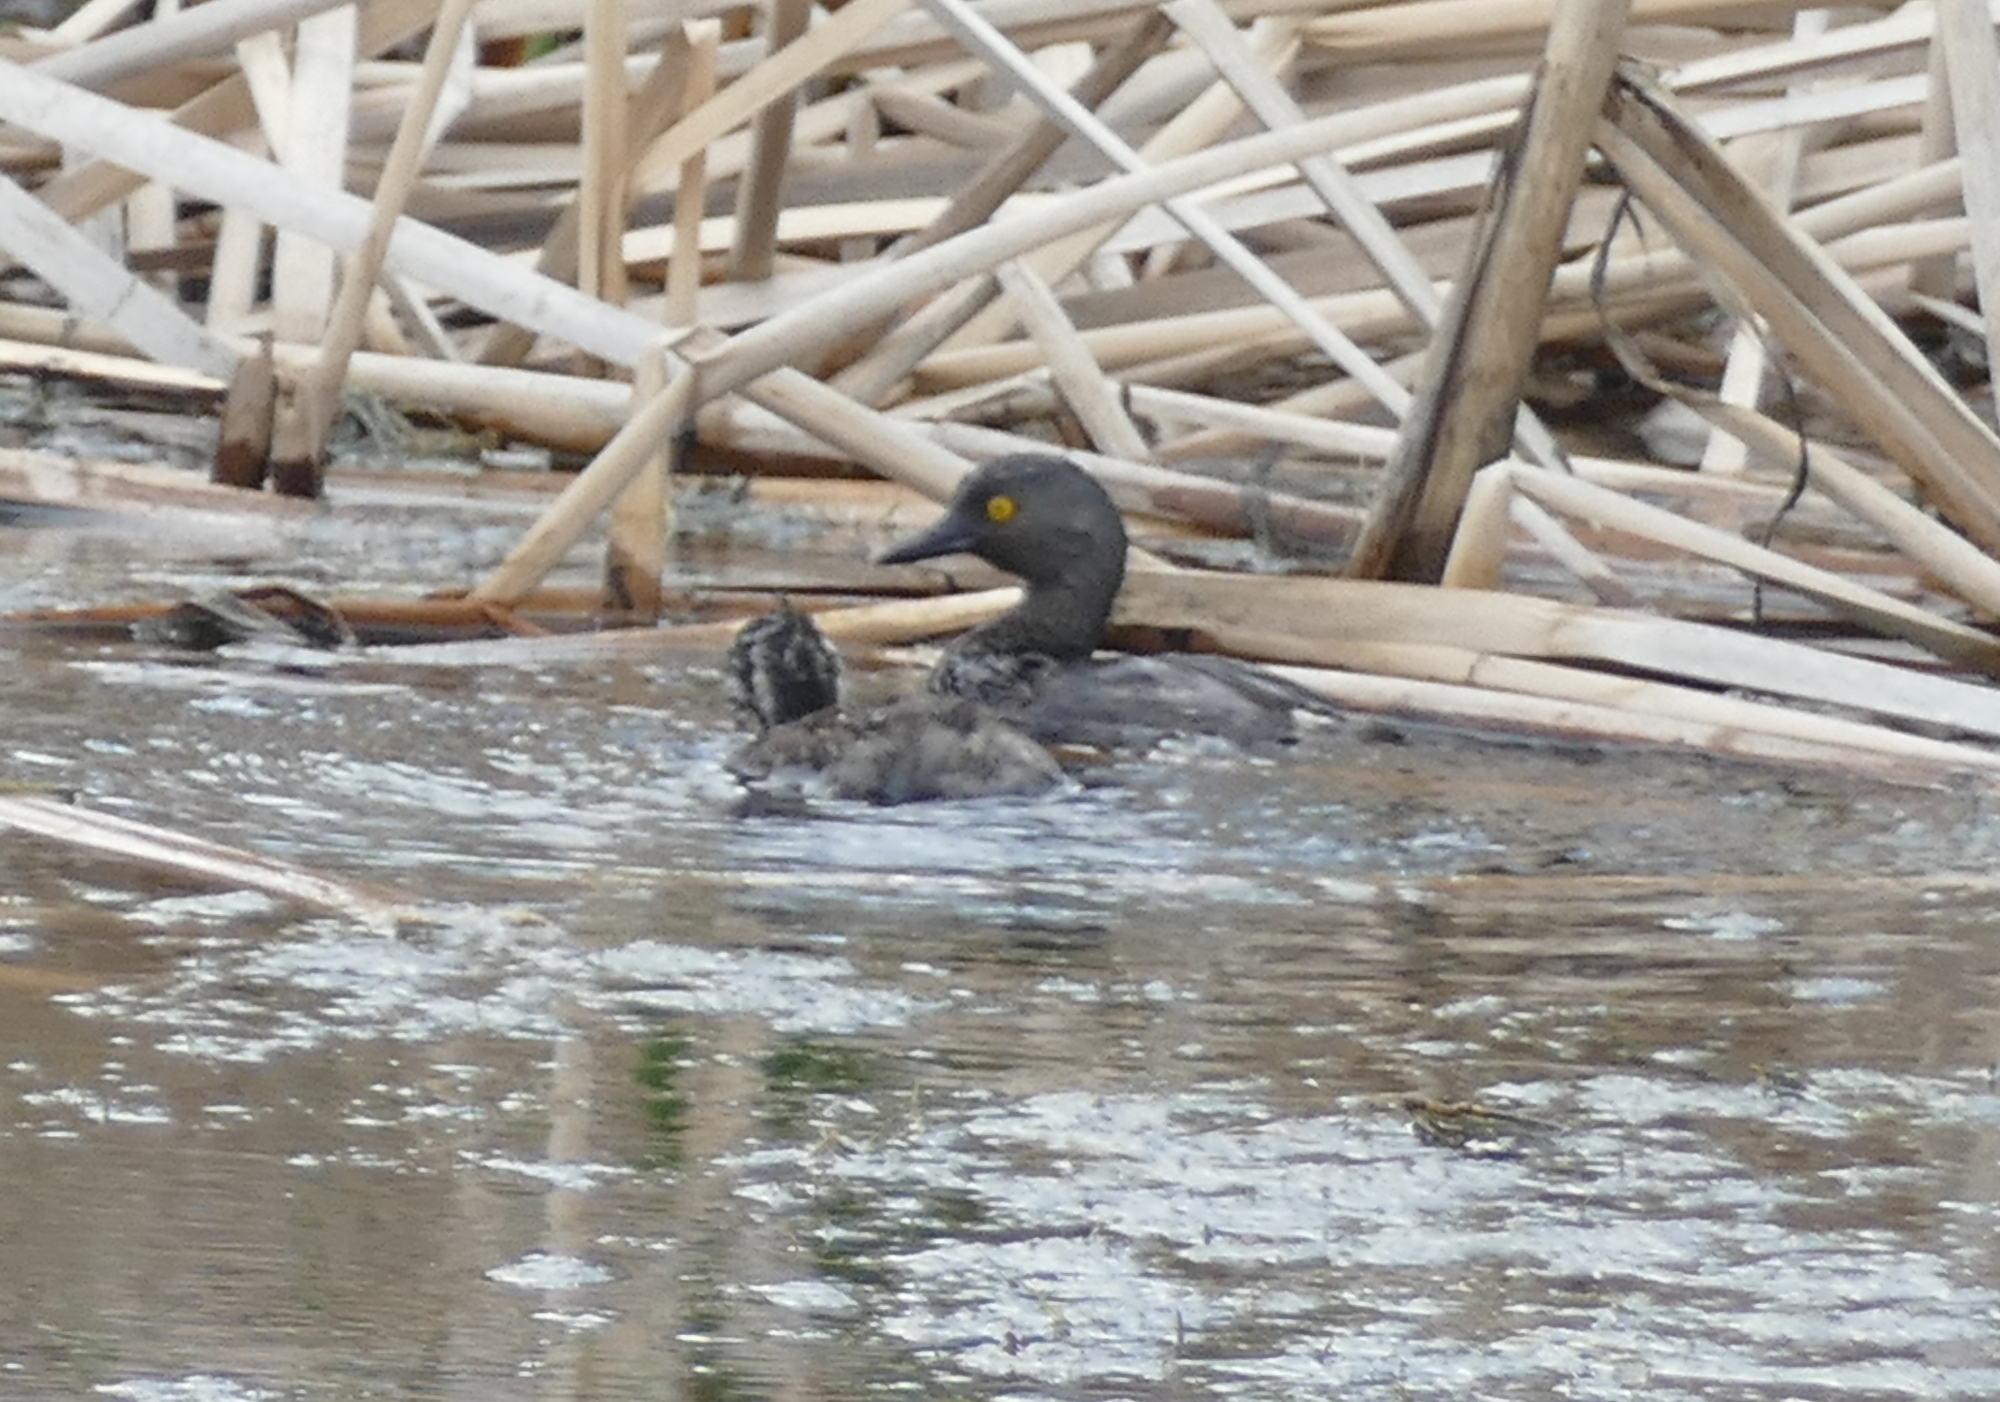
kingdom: Animalia
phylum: Chordata
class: Aves
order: Podicipediformes
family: Podicipedidae
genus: Tachybaptus
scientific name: Tachybaptus dominicus
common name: Least grebe
